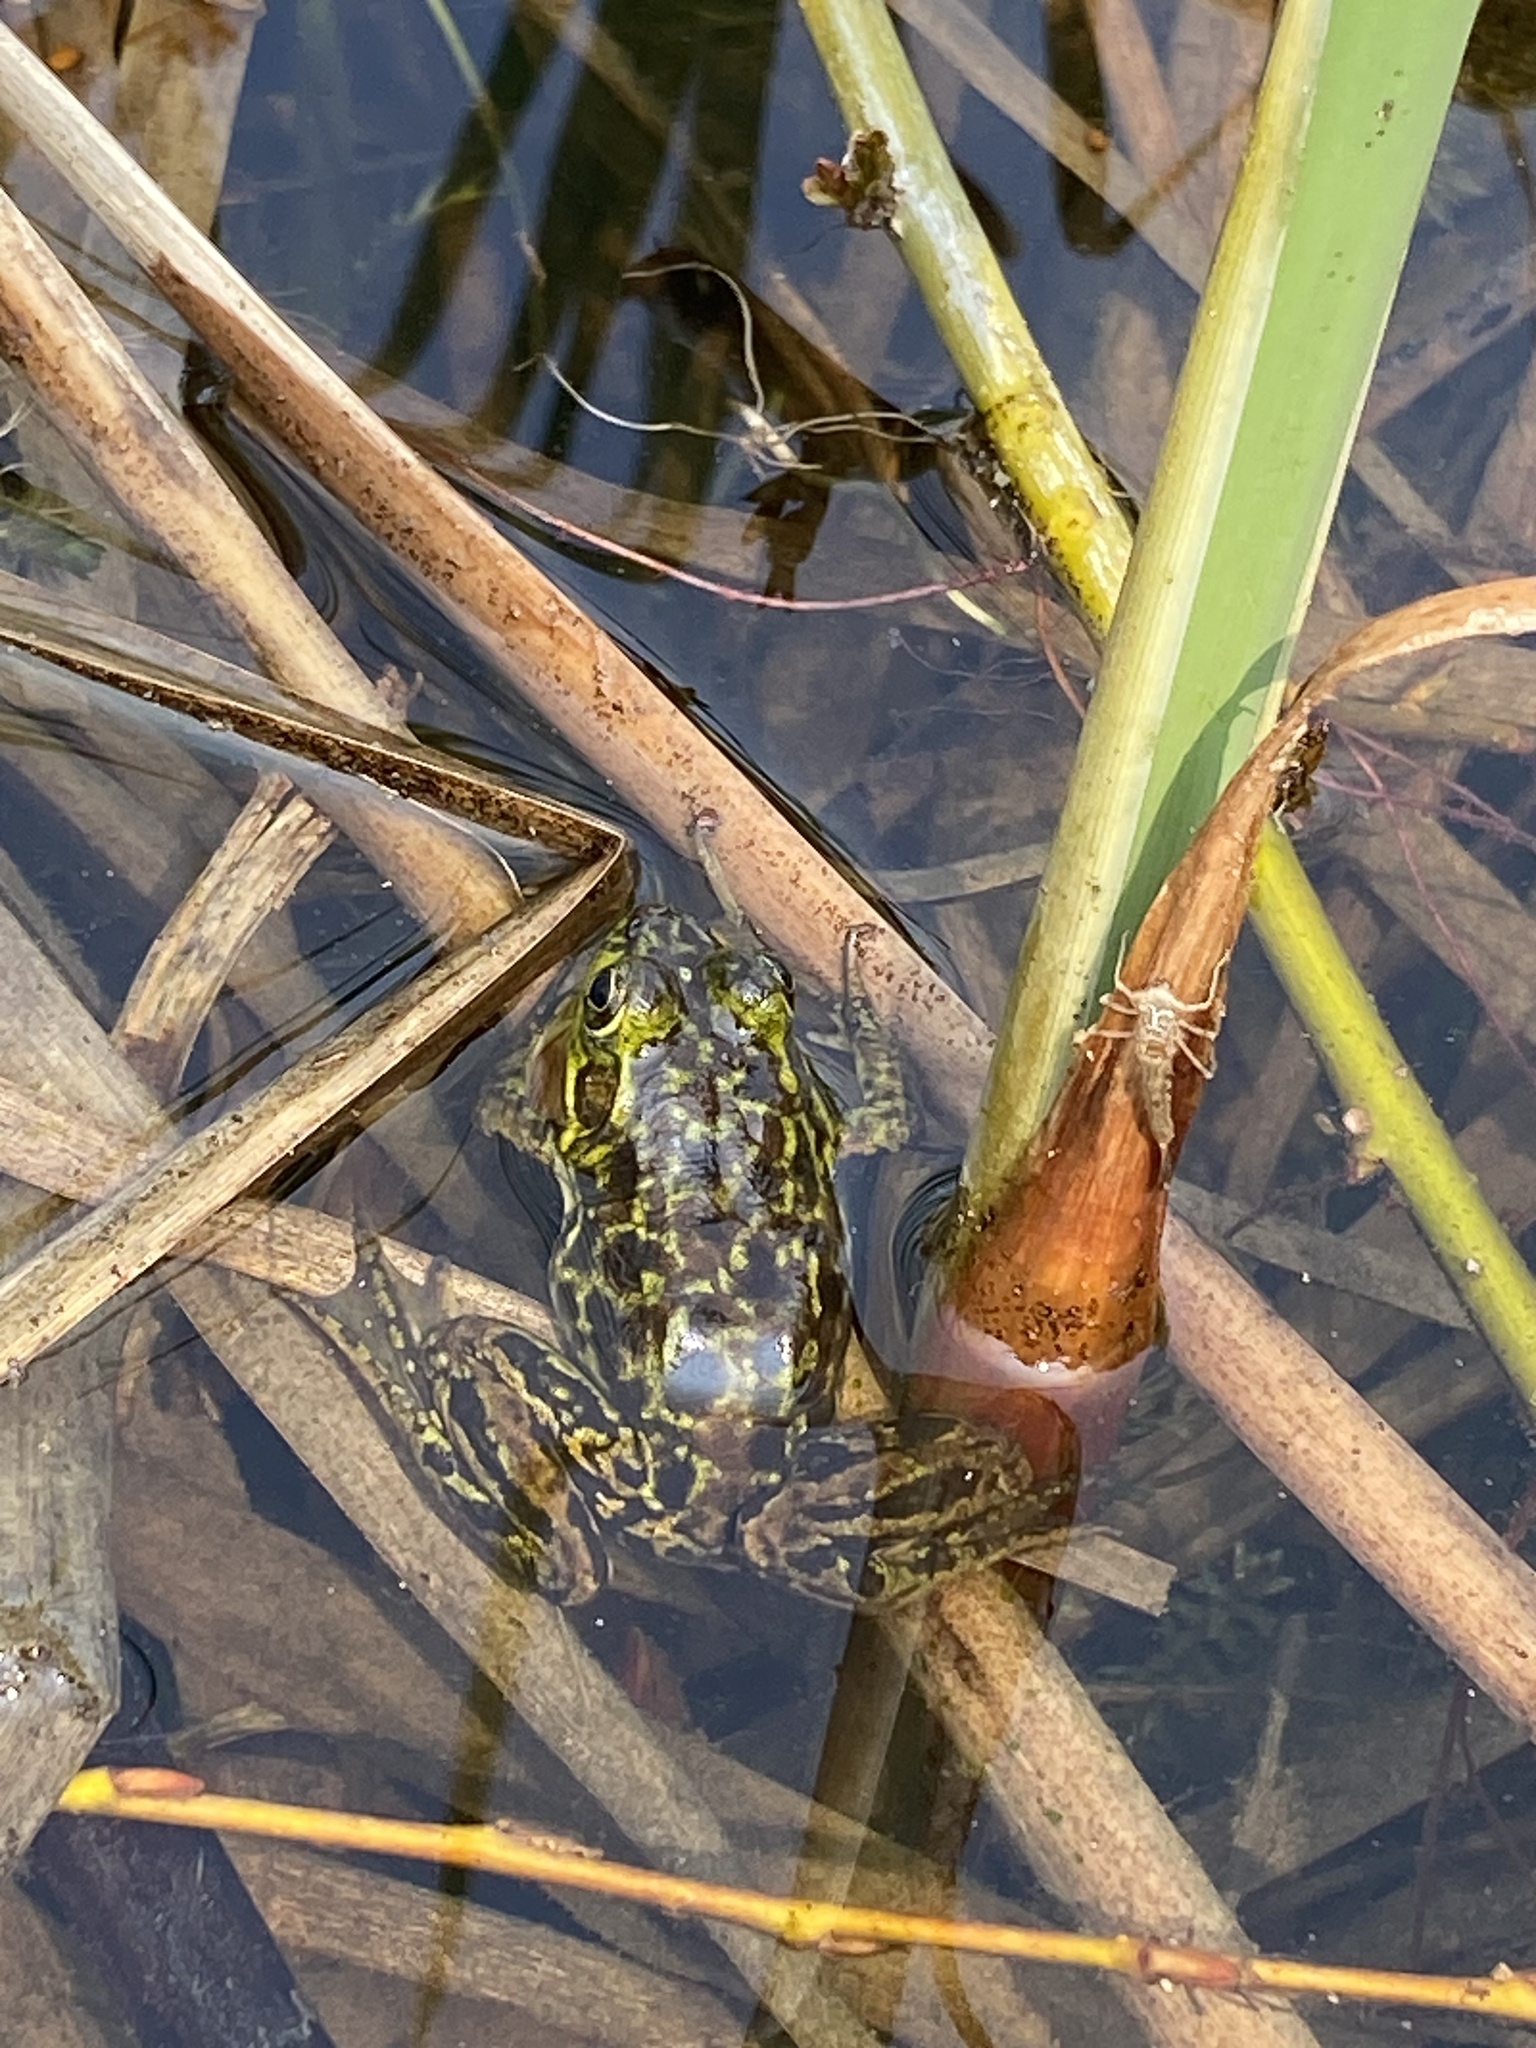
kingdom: Animalia
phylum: Chordata
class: Amphibia
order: Anura
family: Ranidae
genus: Lithobates
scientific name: Lithobates septentrionalis
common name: Mink frog
